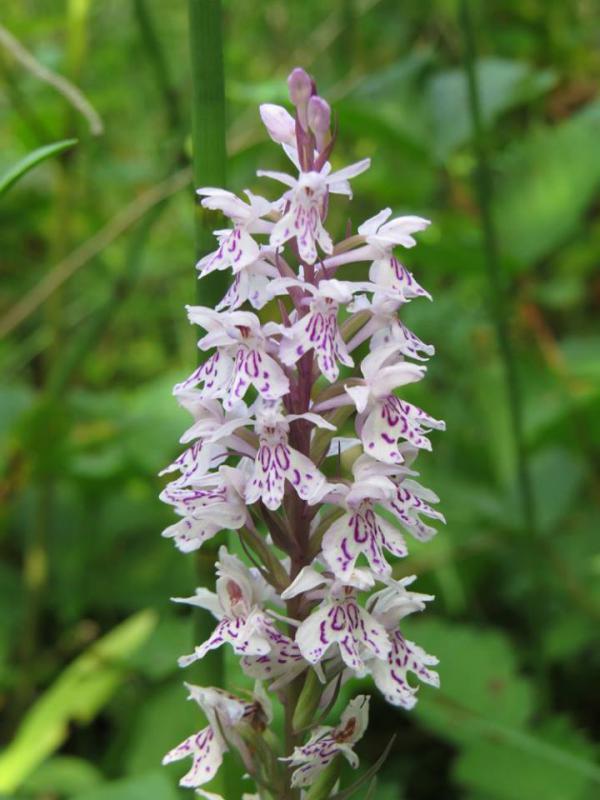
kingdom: Plantae
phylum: Tracheophyta
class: Liliopsida
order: Asparagales
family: Orchidaceae
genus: Dactylorhiza
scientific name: Dactylorhiza maculata
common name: Heath spotted-orchid
